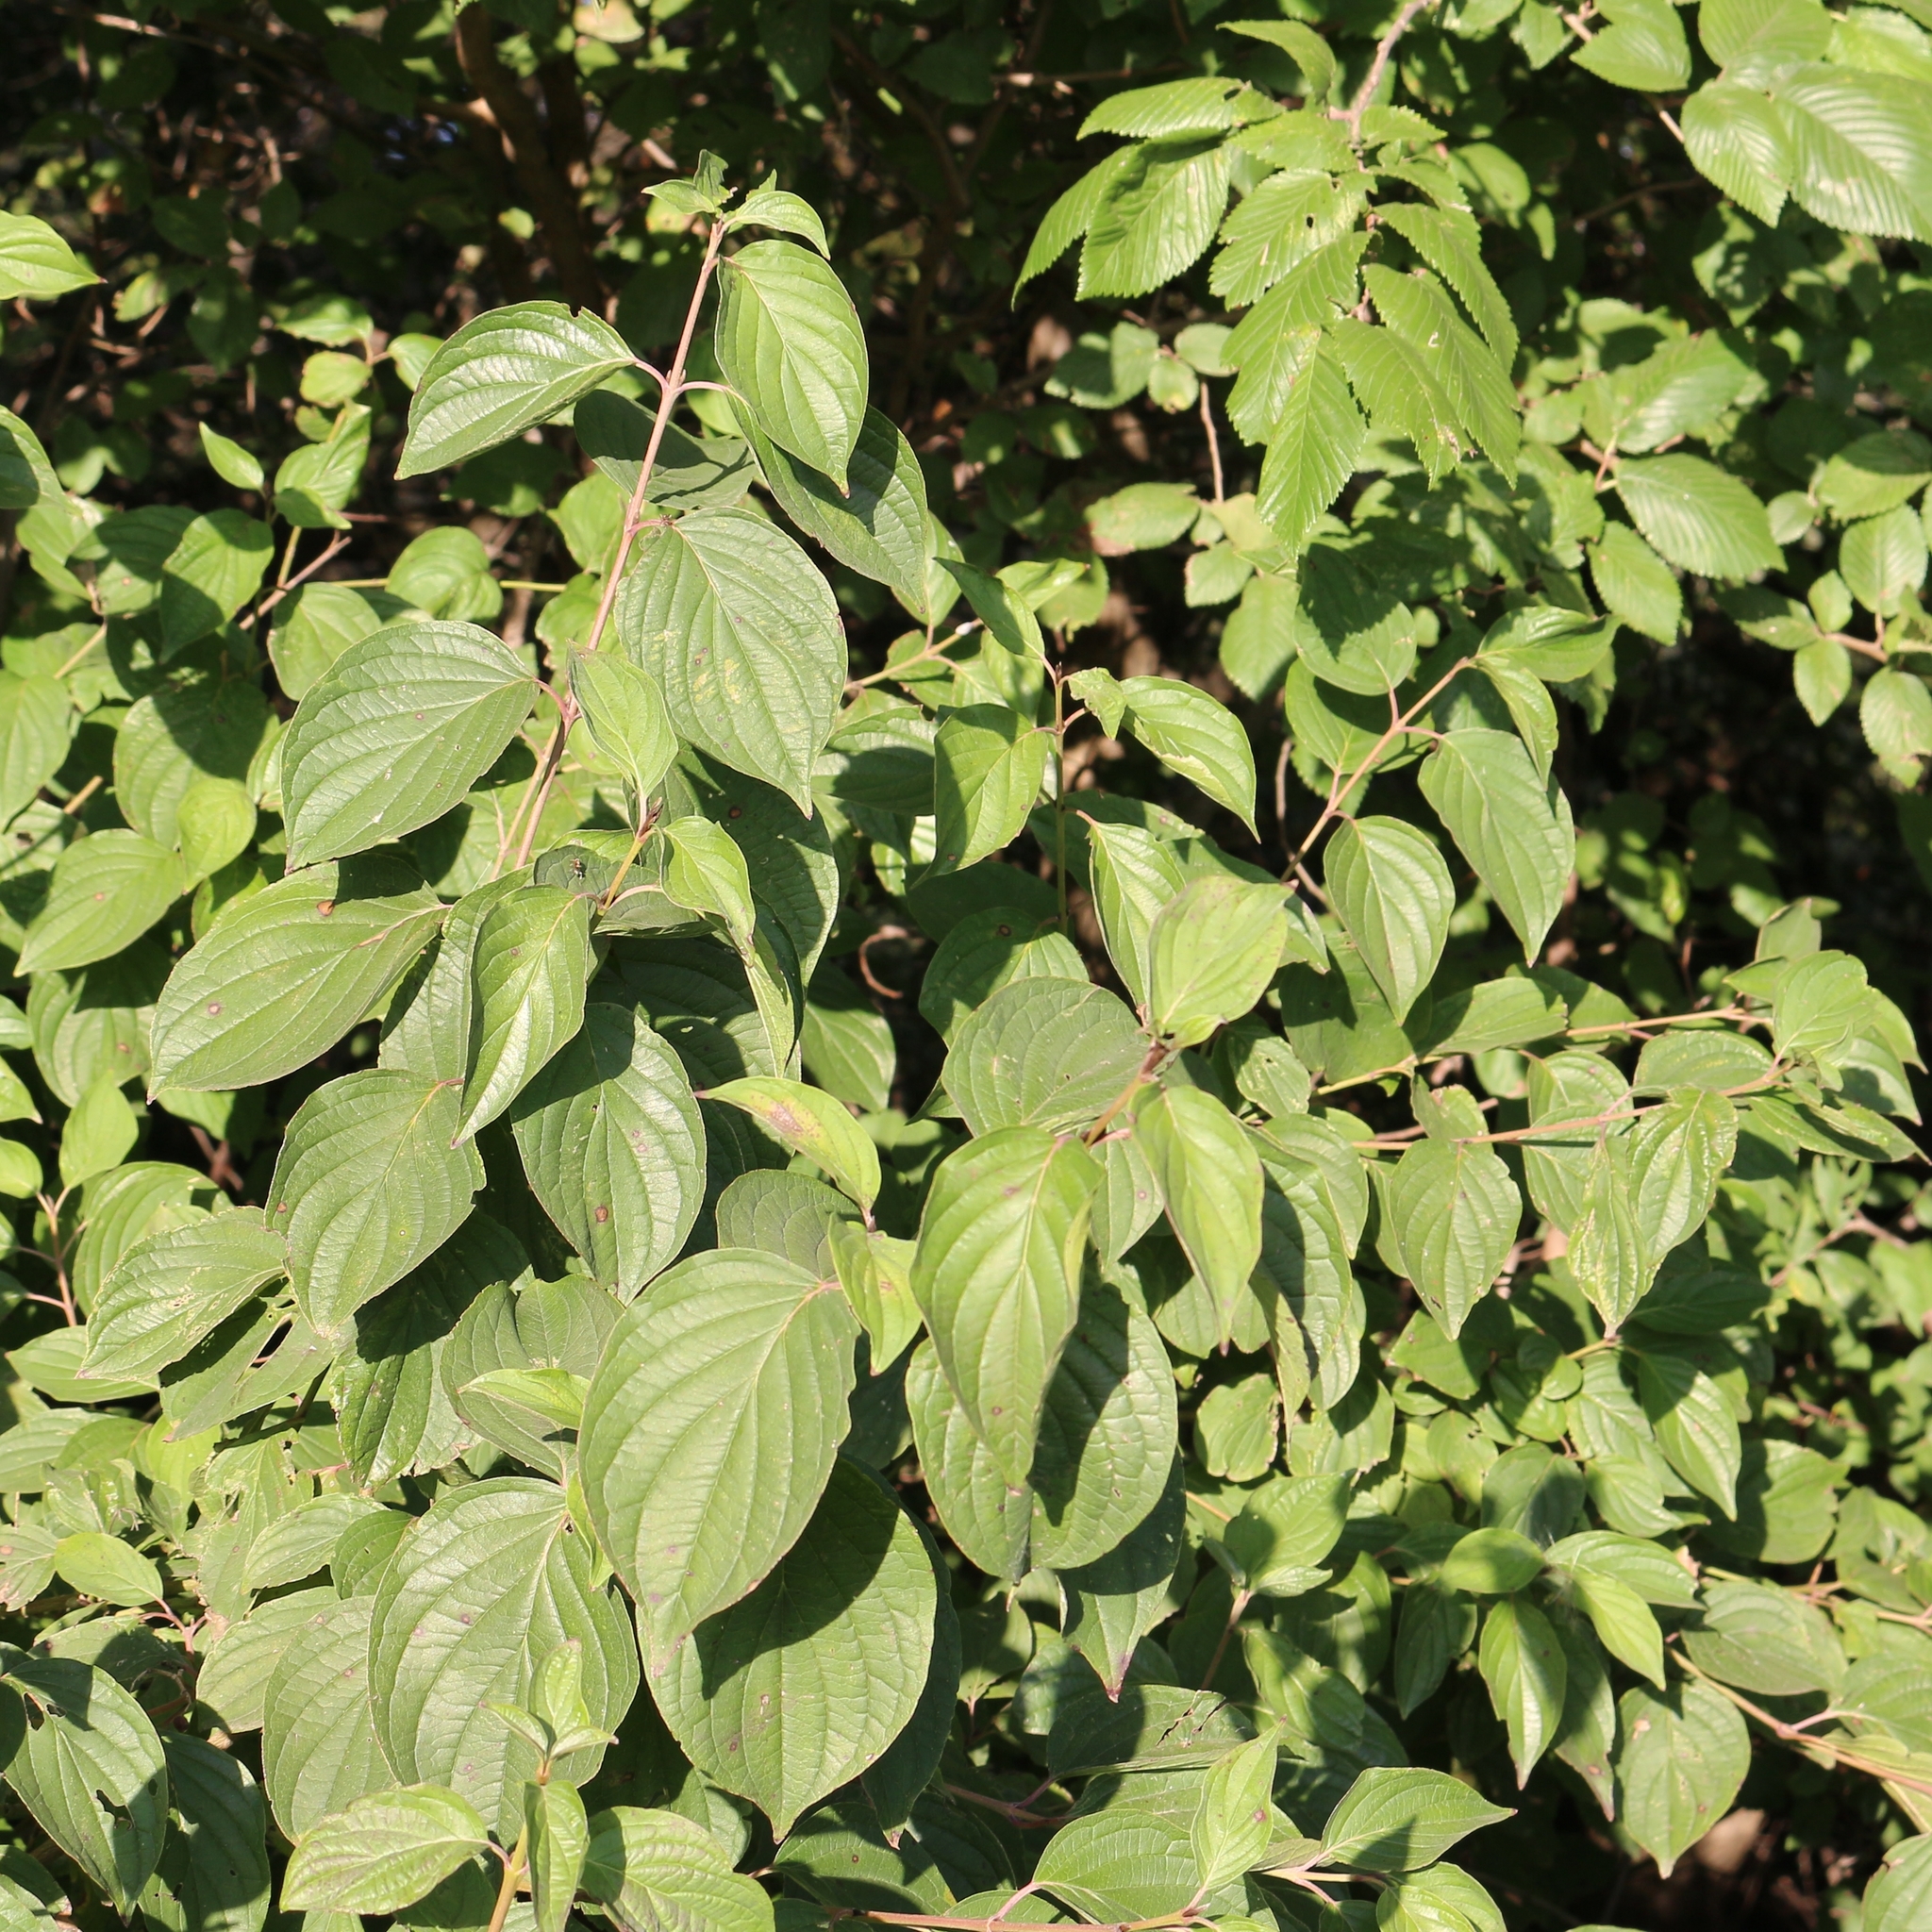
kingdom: Plantae
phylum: Tracheophyta
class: Magnoliopsida
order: Cornales
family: Cornaceae
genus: Cornus
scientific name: Cornus sanguinea
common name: Dogwood
